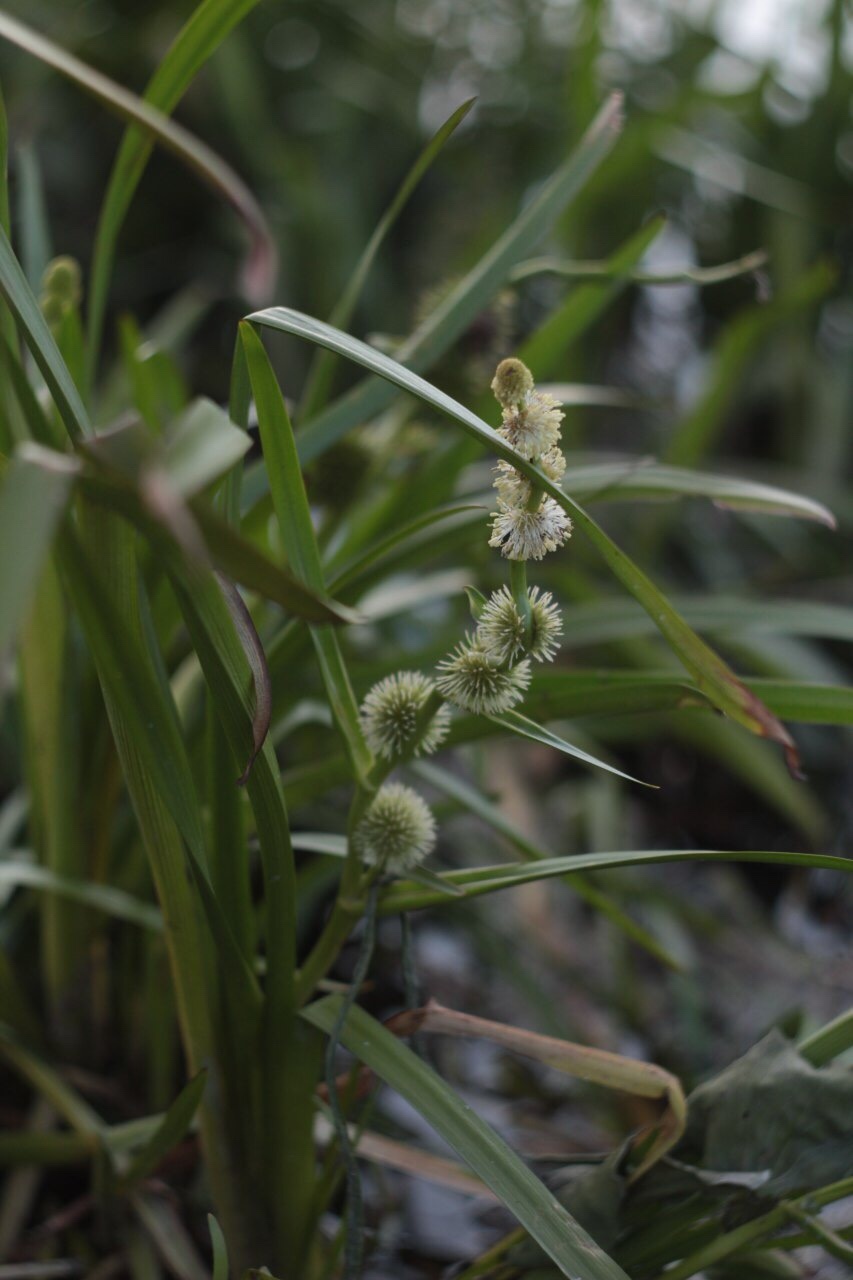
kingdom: Plantae
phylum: Tracheophyta
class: Liliopsida
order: Poales
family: Typhaceae
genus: Sparganium
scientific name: Sparganium emersum
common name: Unbranched bur-reed
